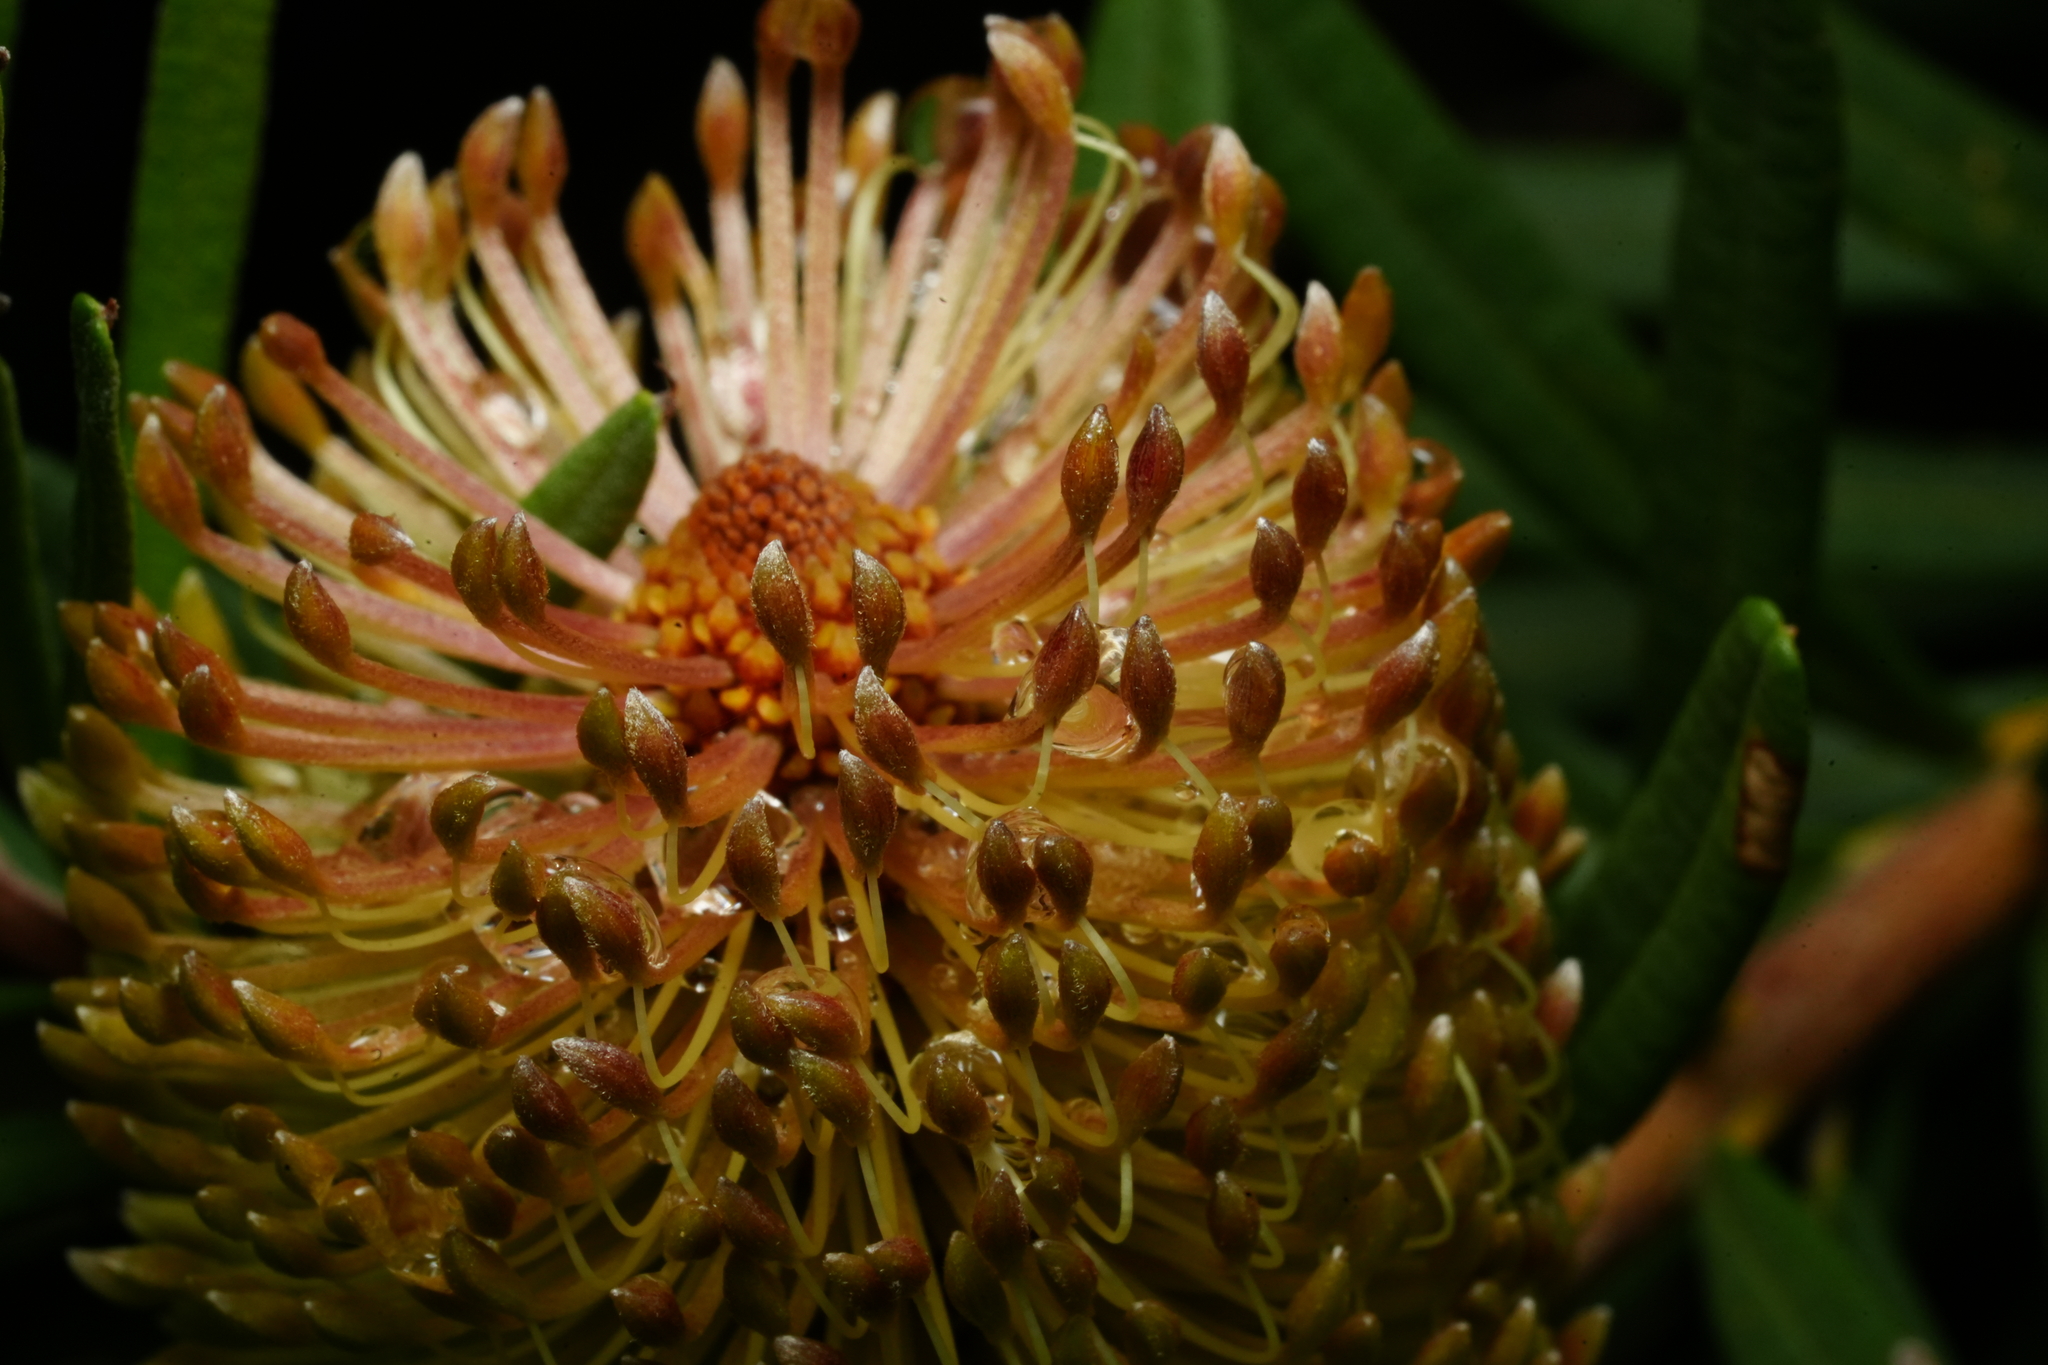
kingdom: Plantae
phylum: Tracheophyta
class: Magnoliopsida
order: Proteales
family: Proteaceae
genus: Banksia
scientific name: Banksia marginata
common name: Silver banksia
